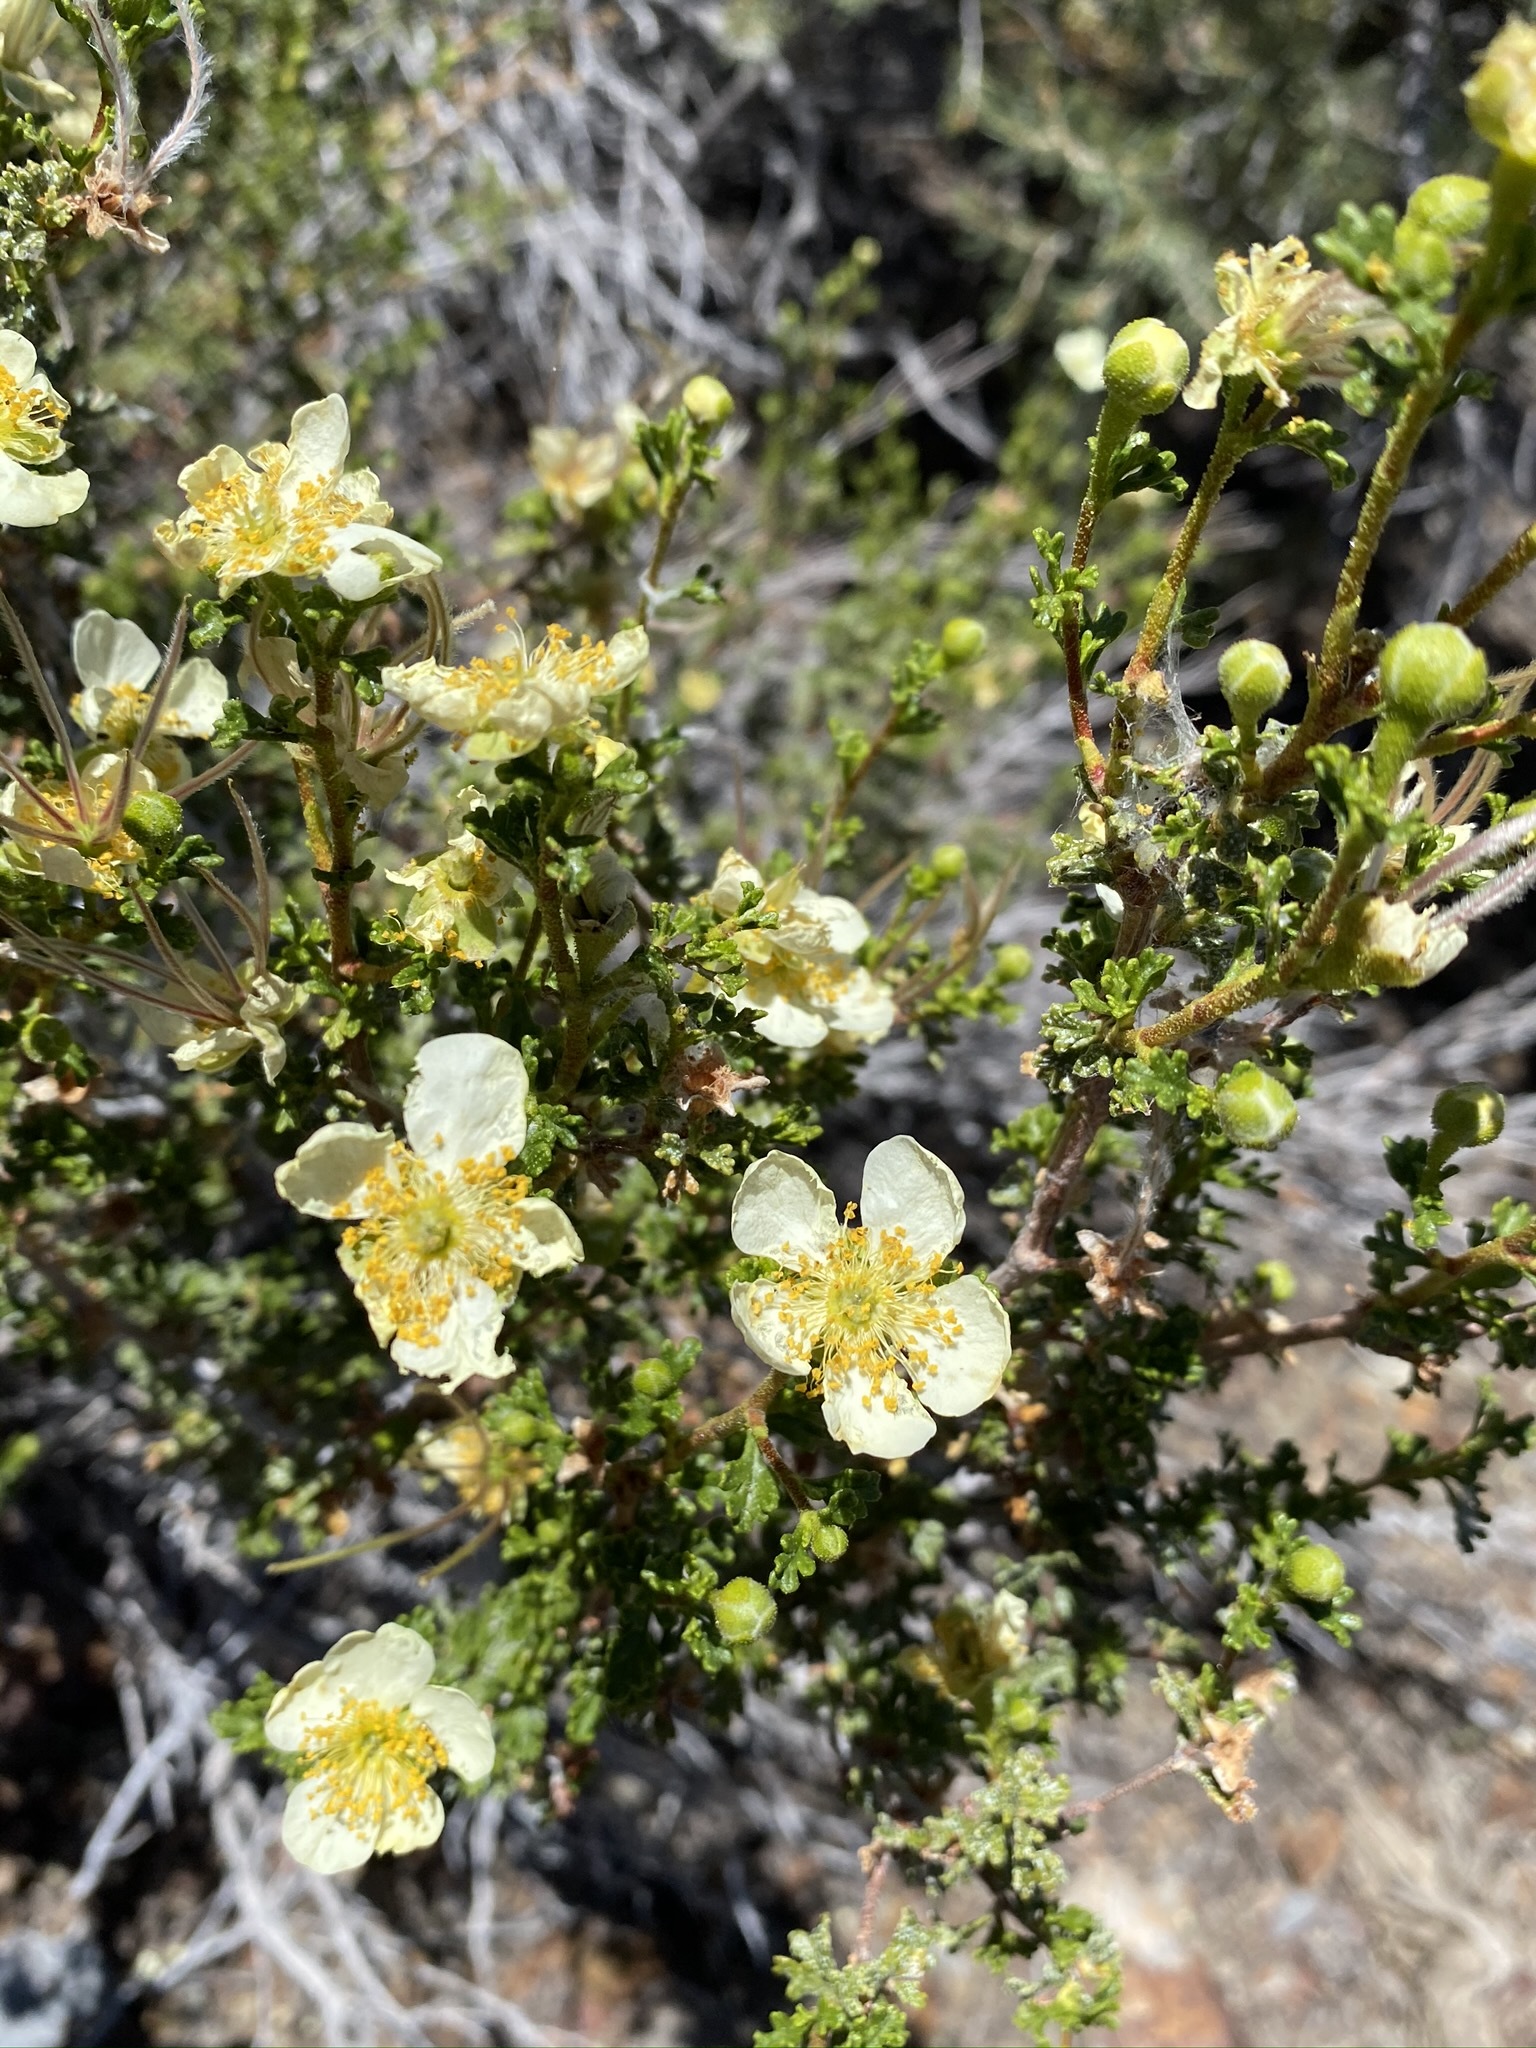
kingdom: Plantae
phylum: Tracheophyta
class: Magnoliopsida
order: Rosales
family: Rosaceae
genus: Purshia
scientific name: Purshia stansburiana
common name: Stansbury's cliffrose
